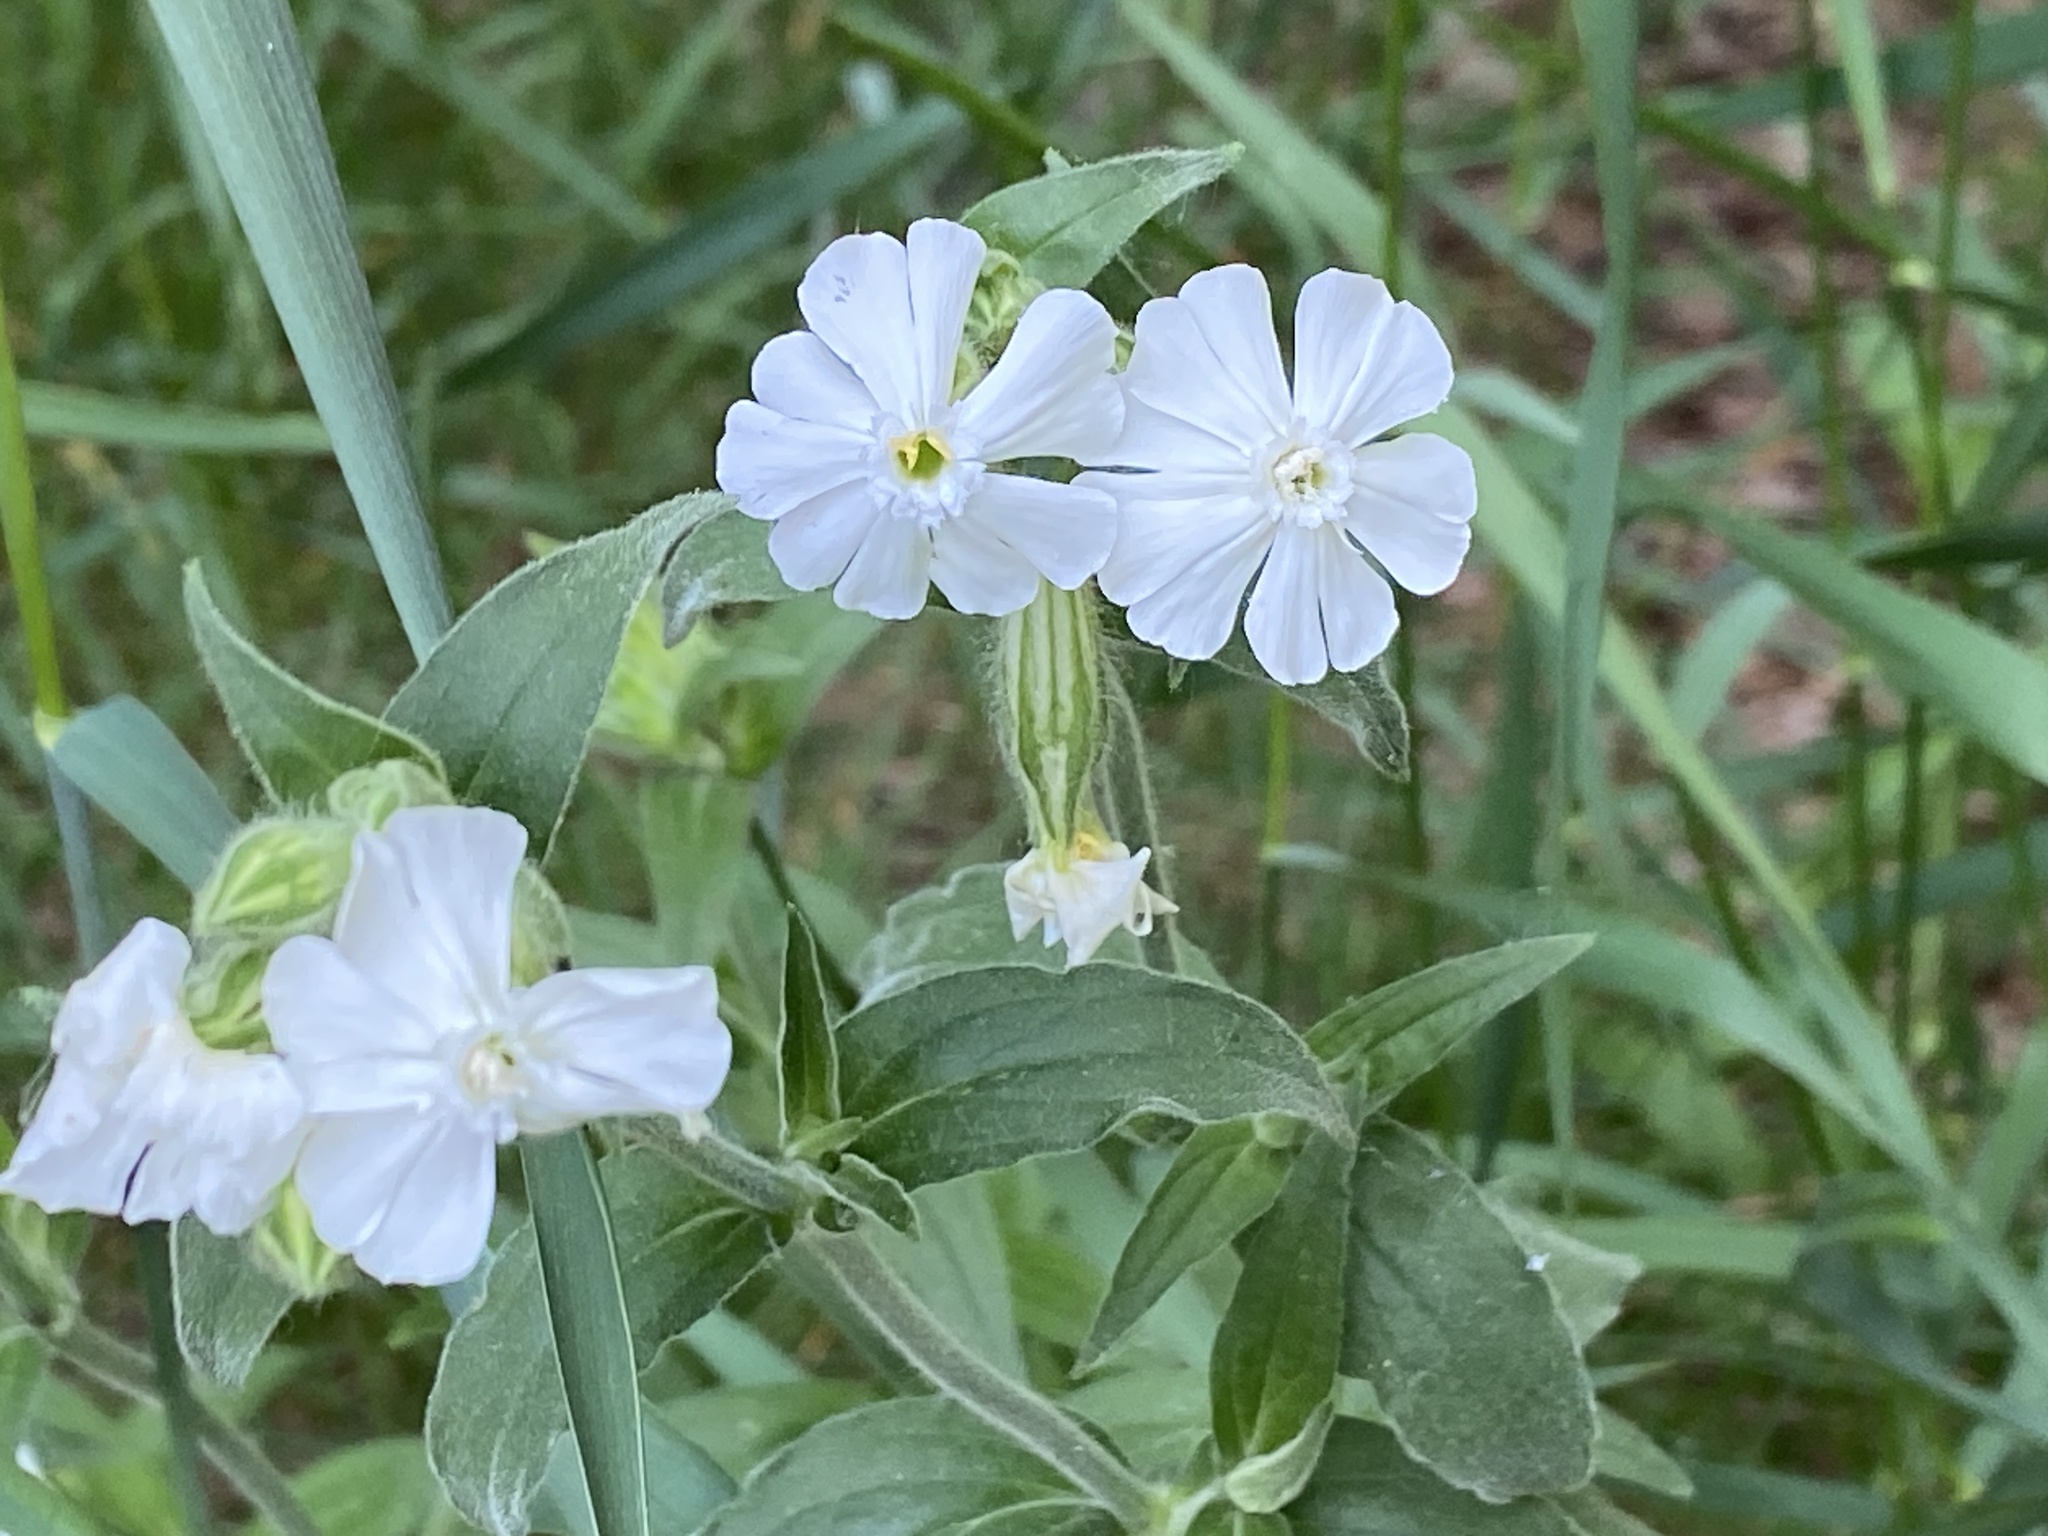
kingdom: Plantae
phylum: Tracheophyta
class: Magnoliopsida
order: Caryophyllales
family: Caryophyllaceae
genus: Silene
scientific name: Silene latifolia
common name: White campion
